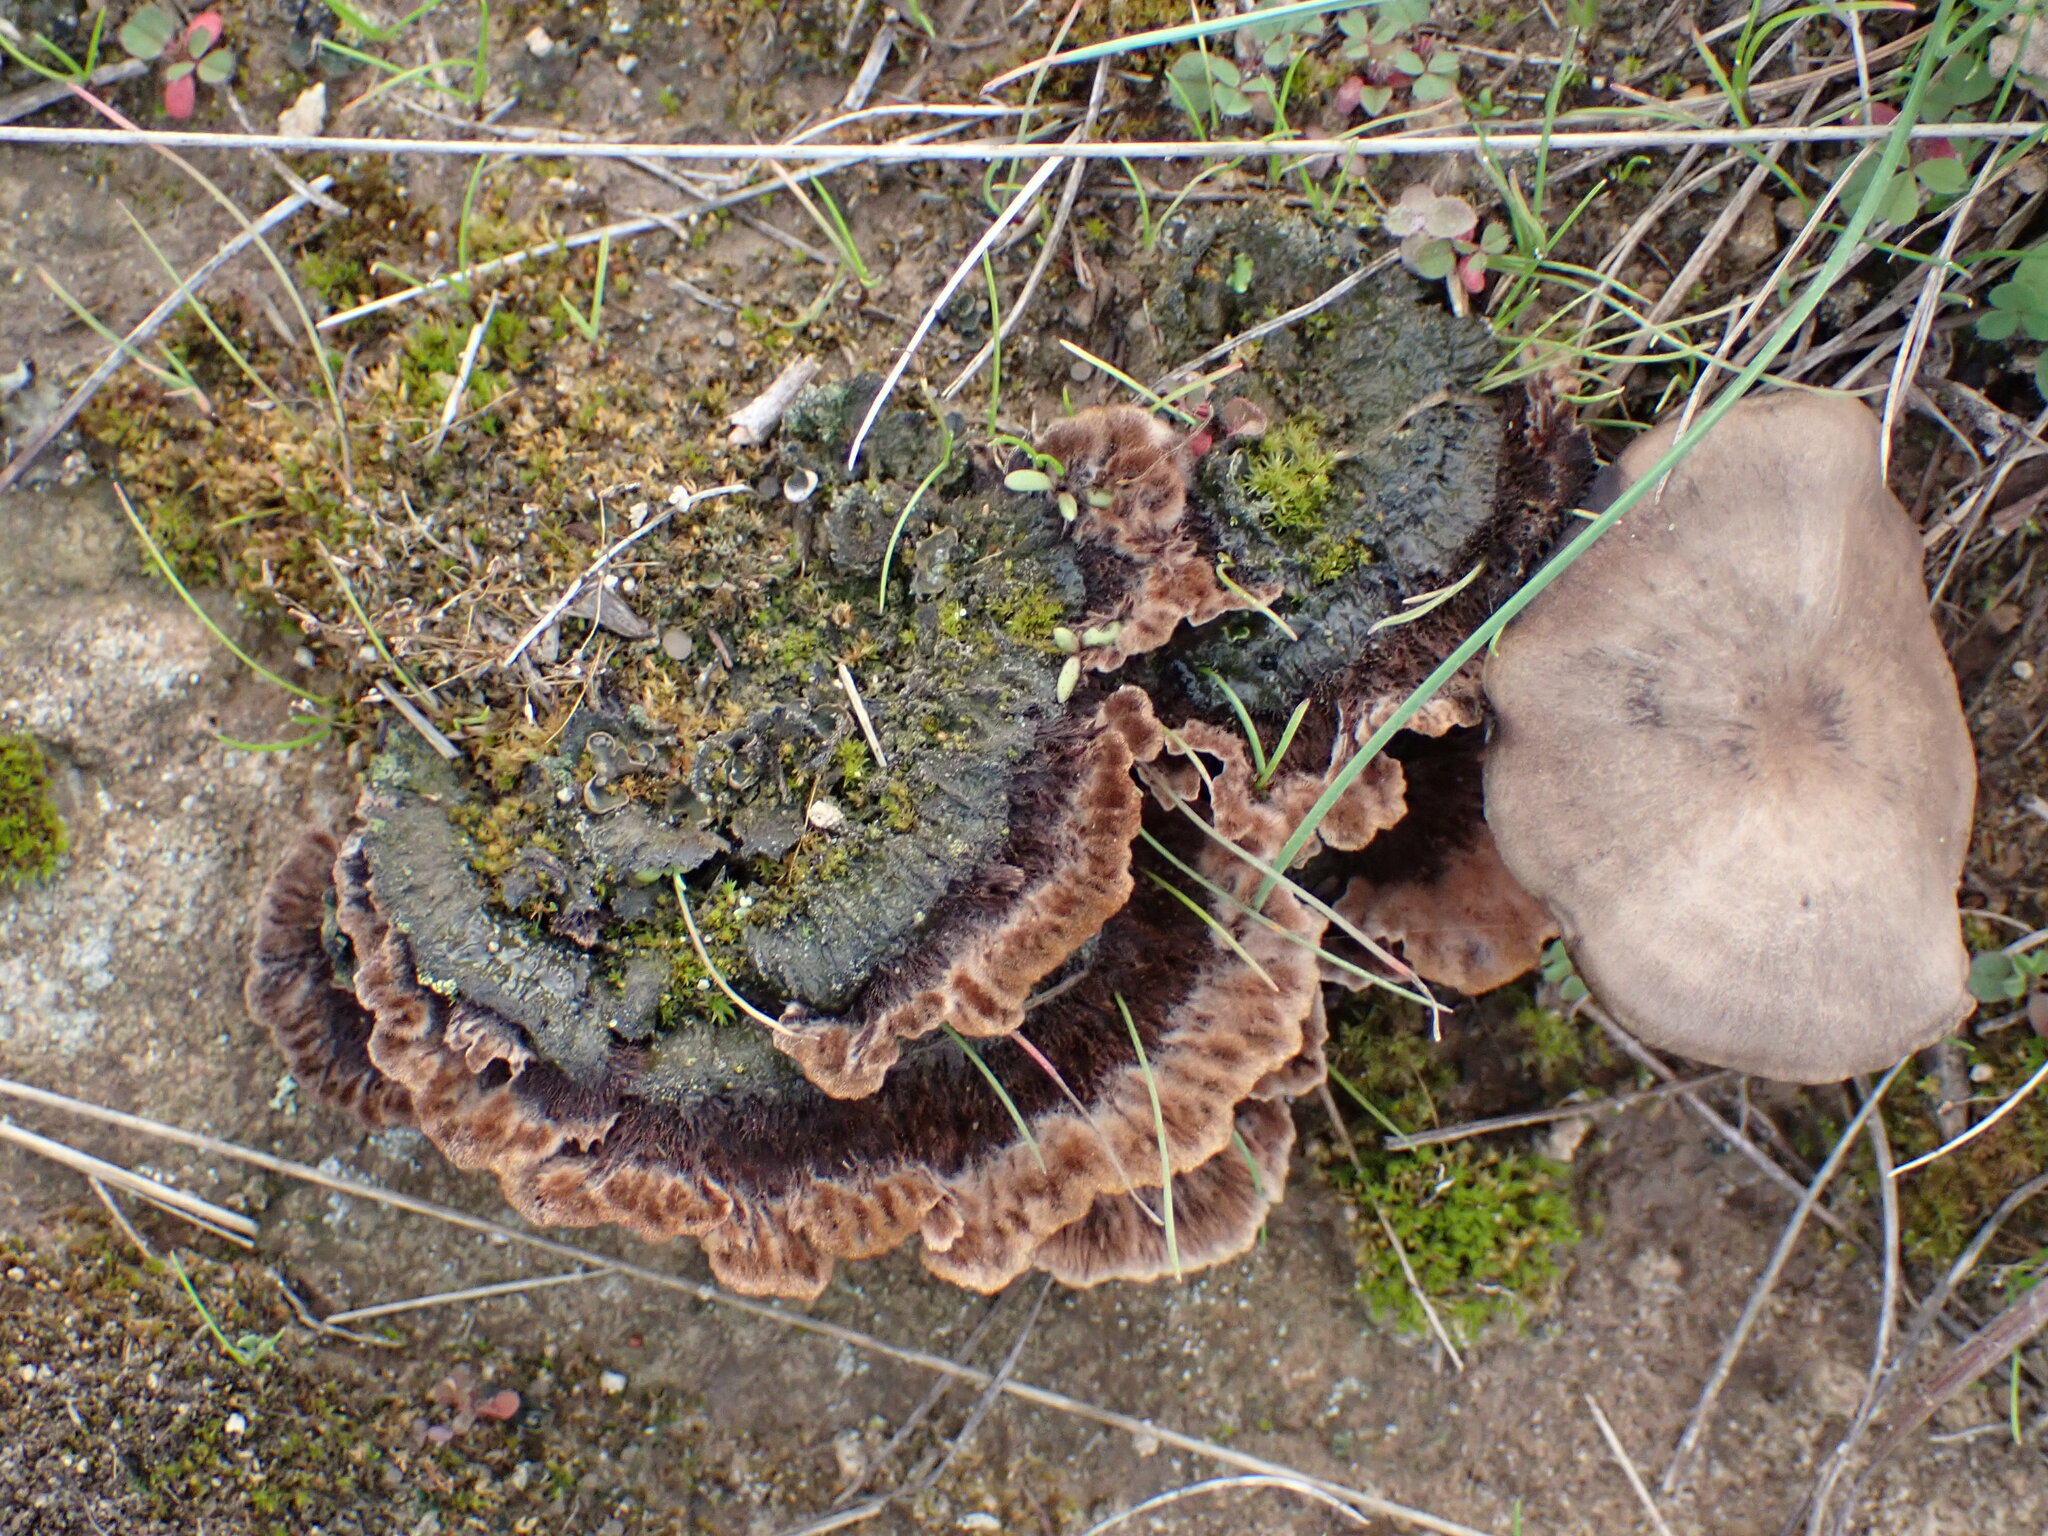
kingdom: Fungi
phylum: Basidiomycota
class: Agaricomycetes
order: Thelephorales
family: Thelephoraceae
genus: Thelephora
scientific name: Thelephora terrestris
